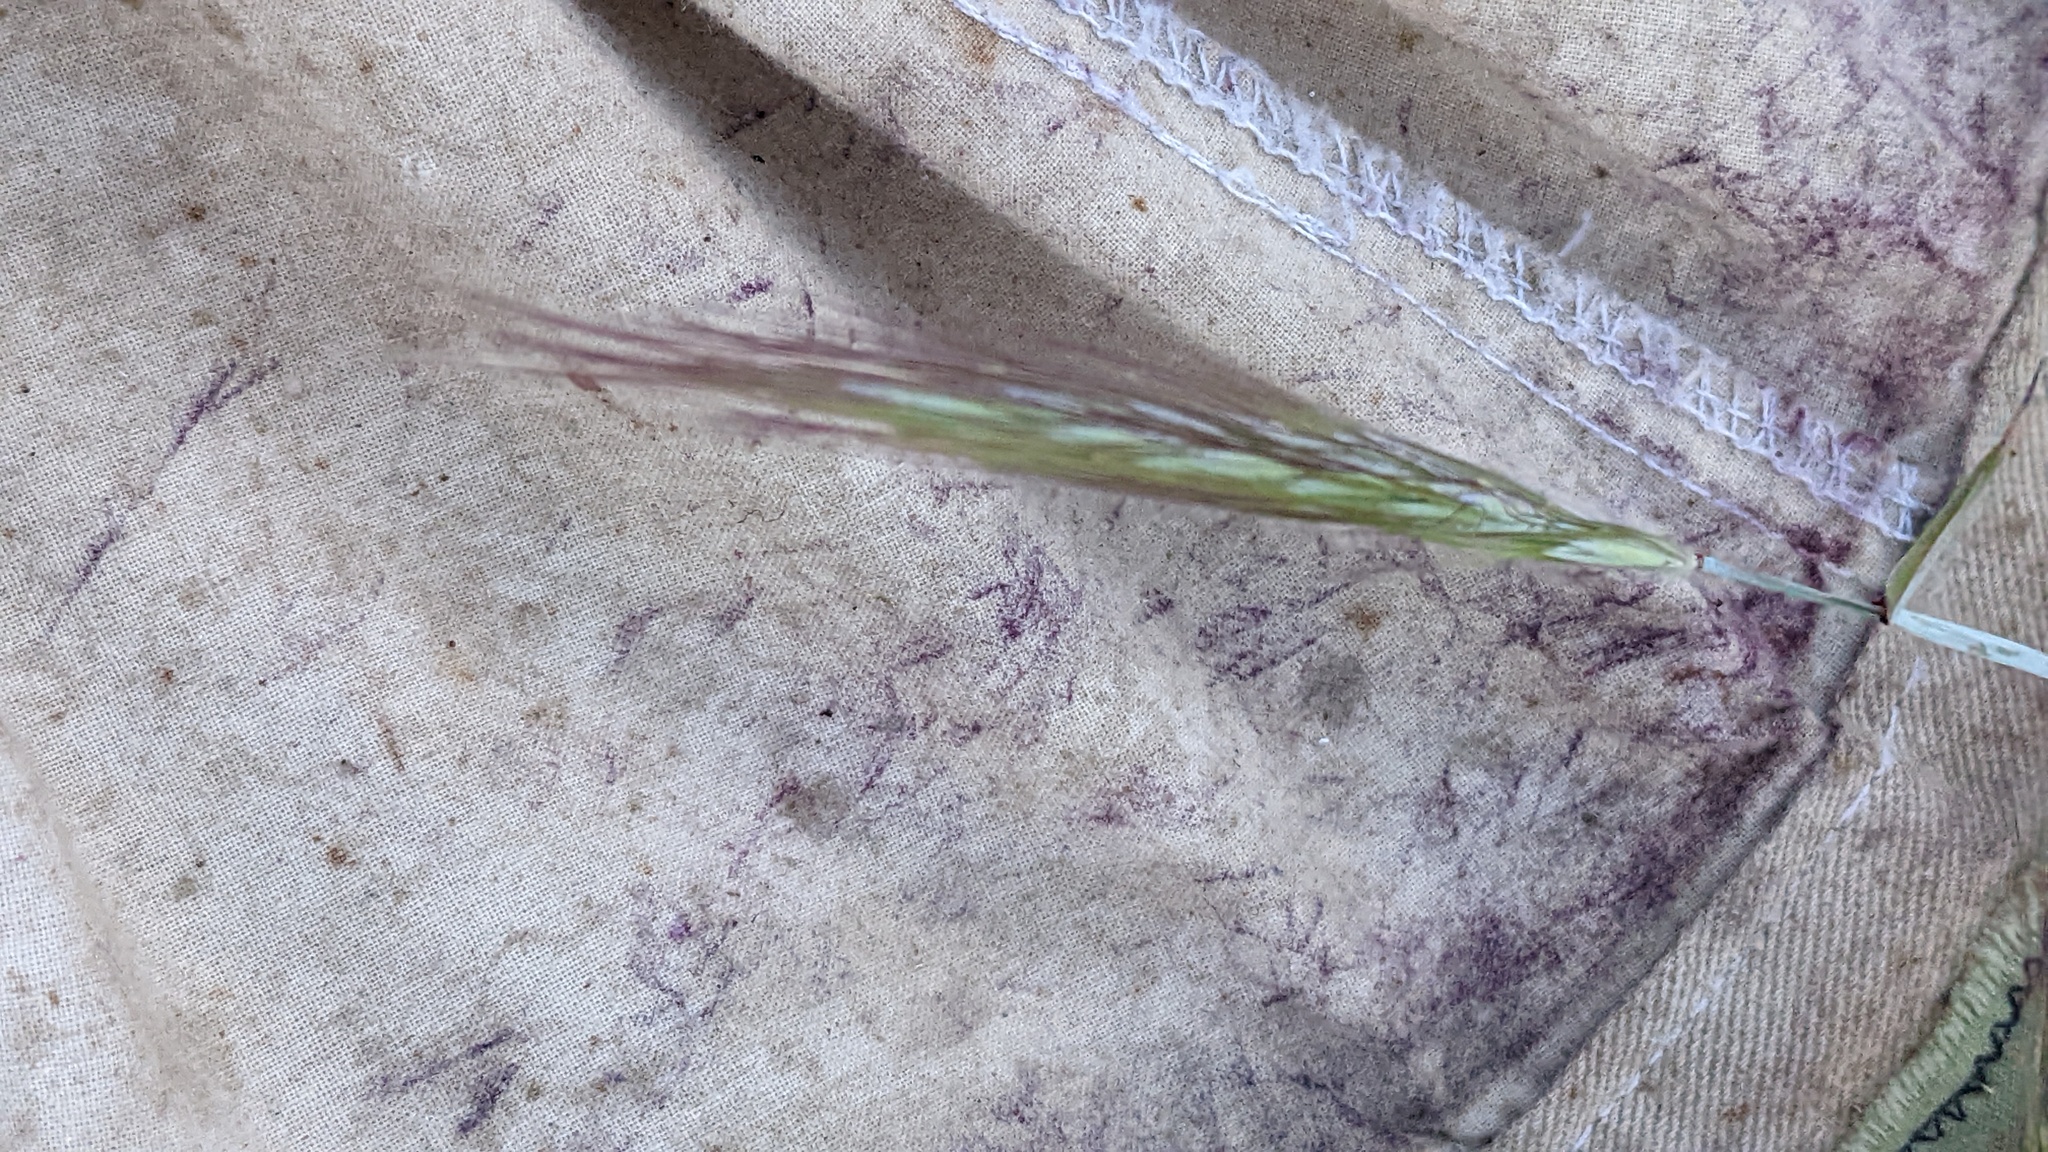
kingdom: Plantae
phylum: Tracheophyta
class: Liliopsida
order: Poales
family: Poaceae
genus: Elymus
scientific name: Elymus elymoides
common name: Bottlebrush squirreltail
